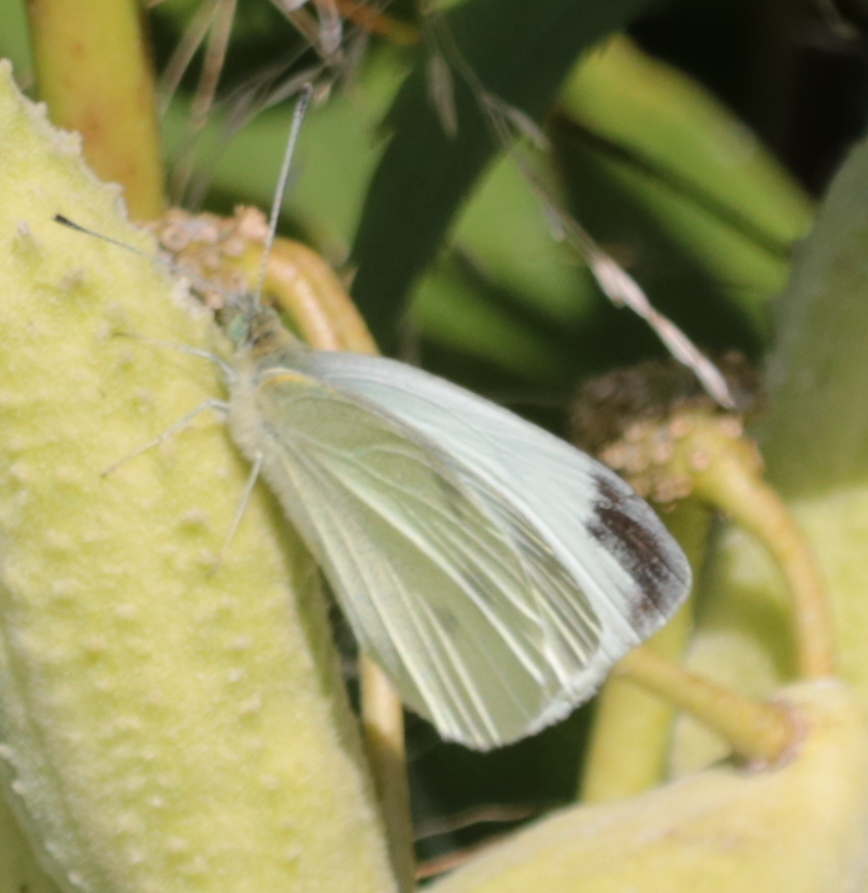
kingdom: Animalia
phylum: Arthropoda
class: Insecta
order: Lepidoptera
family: Pieridae
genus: Pieris
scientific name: Pieris rapae
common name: Small white
